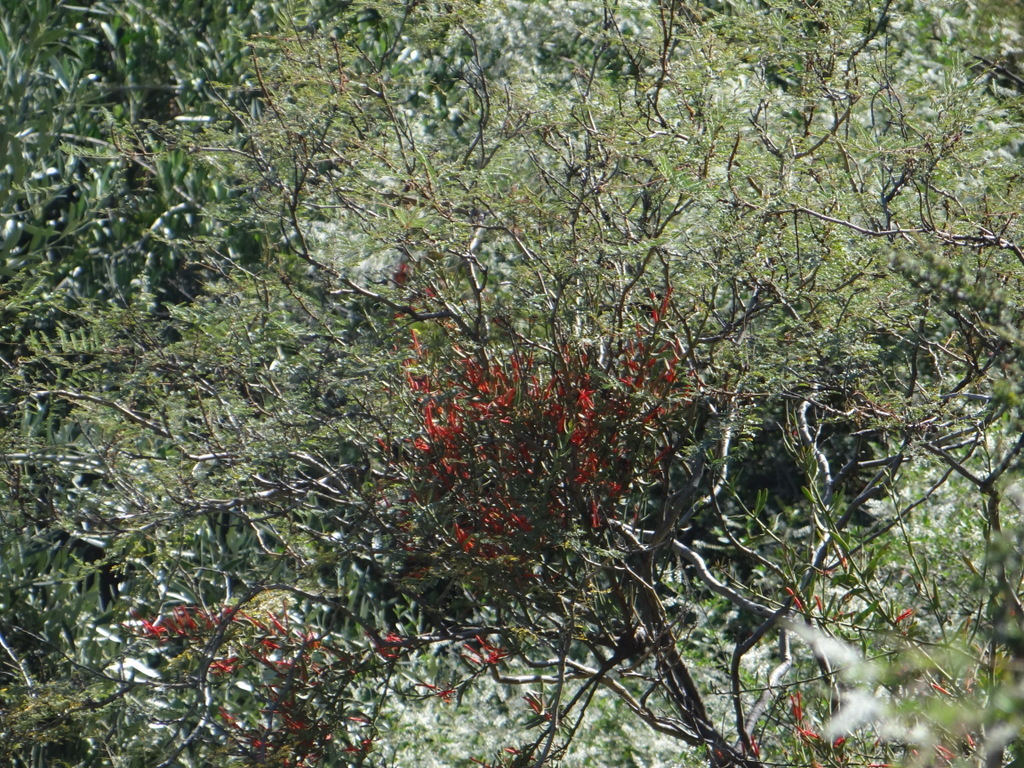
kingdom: Plantae
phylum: Tracheophyta
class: Magnoliopsida
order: Santalales
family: Loranthaceae
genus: Ligaria
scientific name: Ligaria cuneifolia
